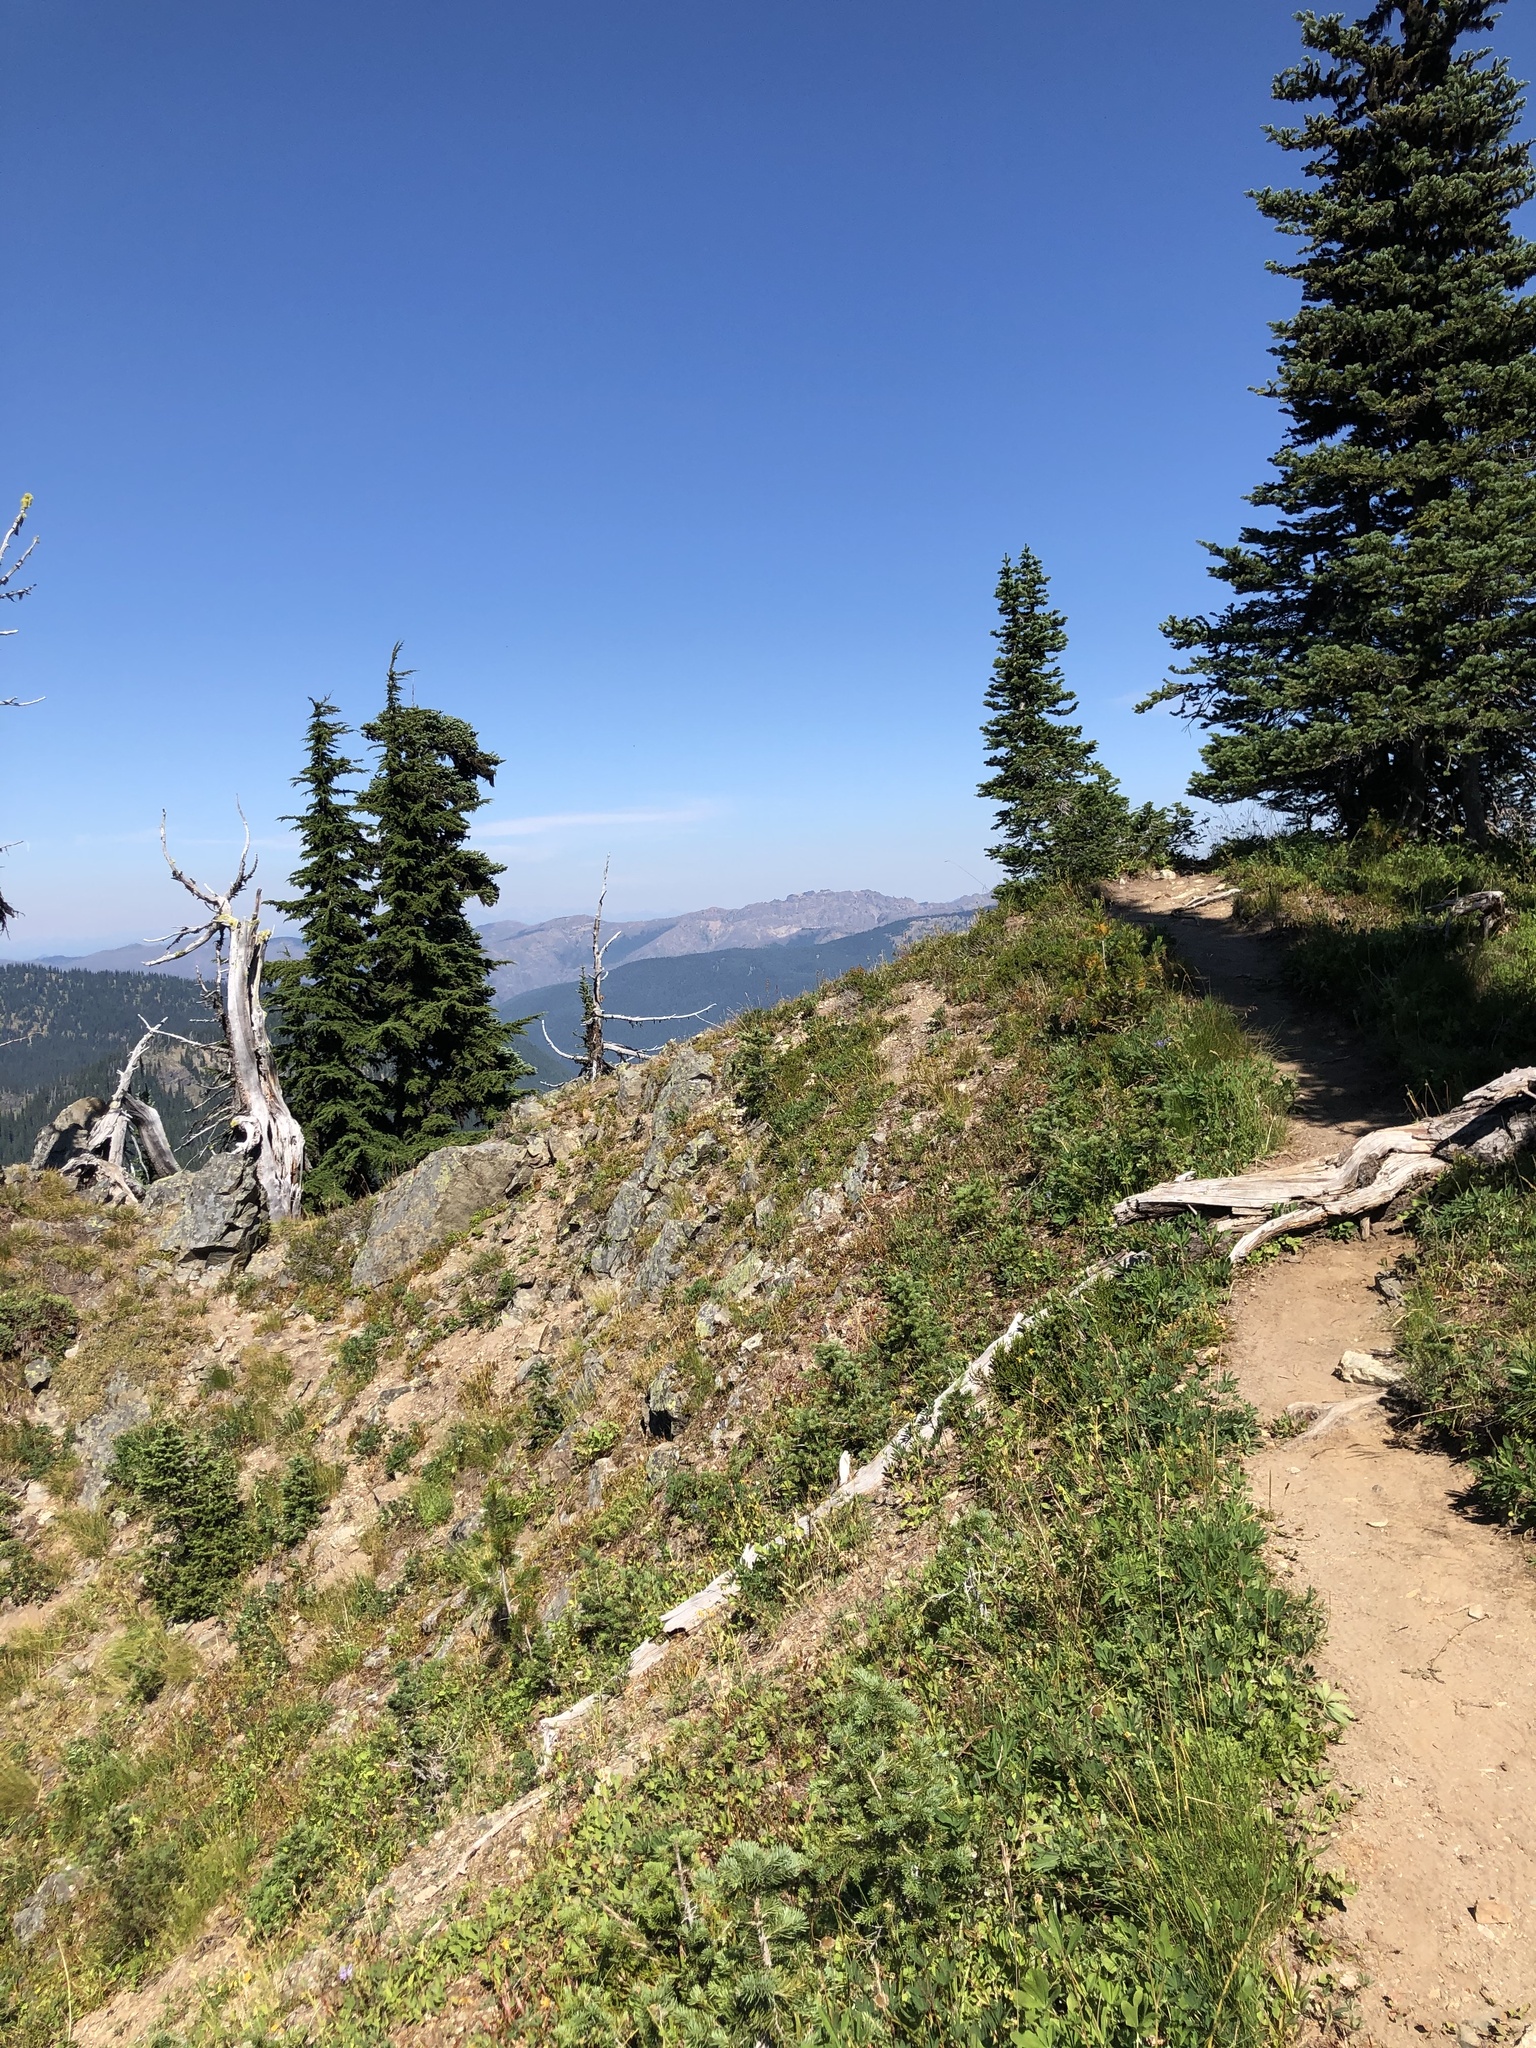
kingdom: Plantae
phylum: Tracheophyta
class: Pinopsida
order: Pinales
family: Pinaceae
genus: Abies
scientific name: Abies lasiocarpa
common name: Subalpine fir
